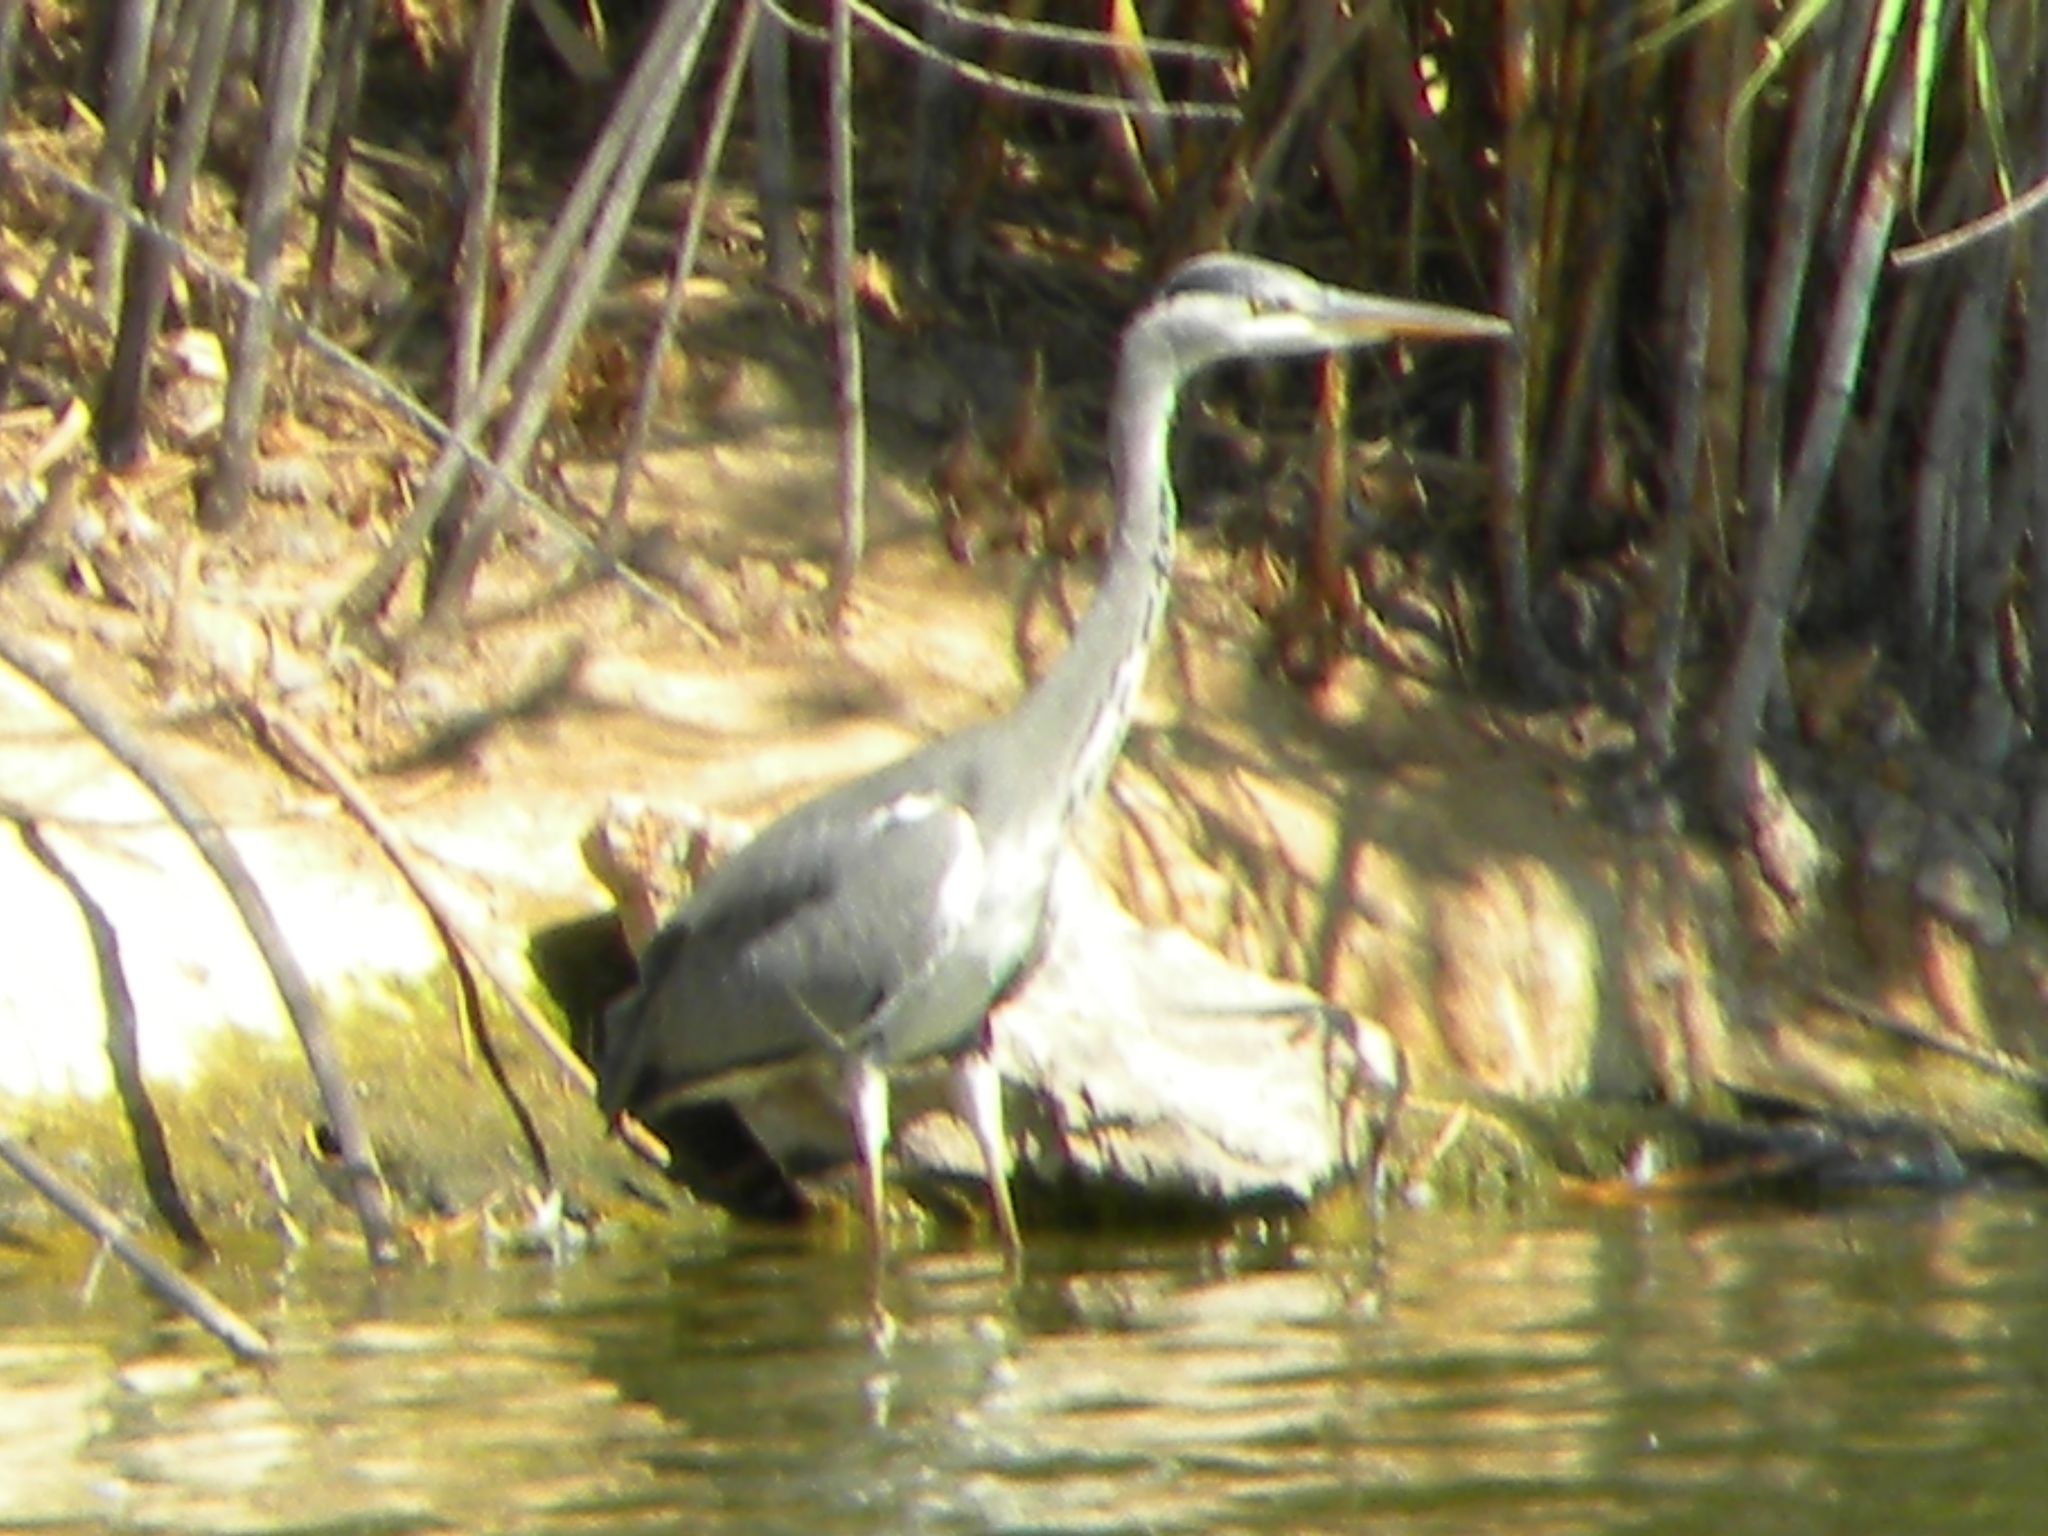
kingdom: Animalia
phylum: Chordata
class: Aves
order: Pelecaniformes
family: Ardeidae
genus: Ardea
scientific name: Ardea cinerea
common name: Grey heron
